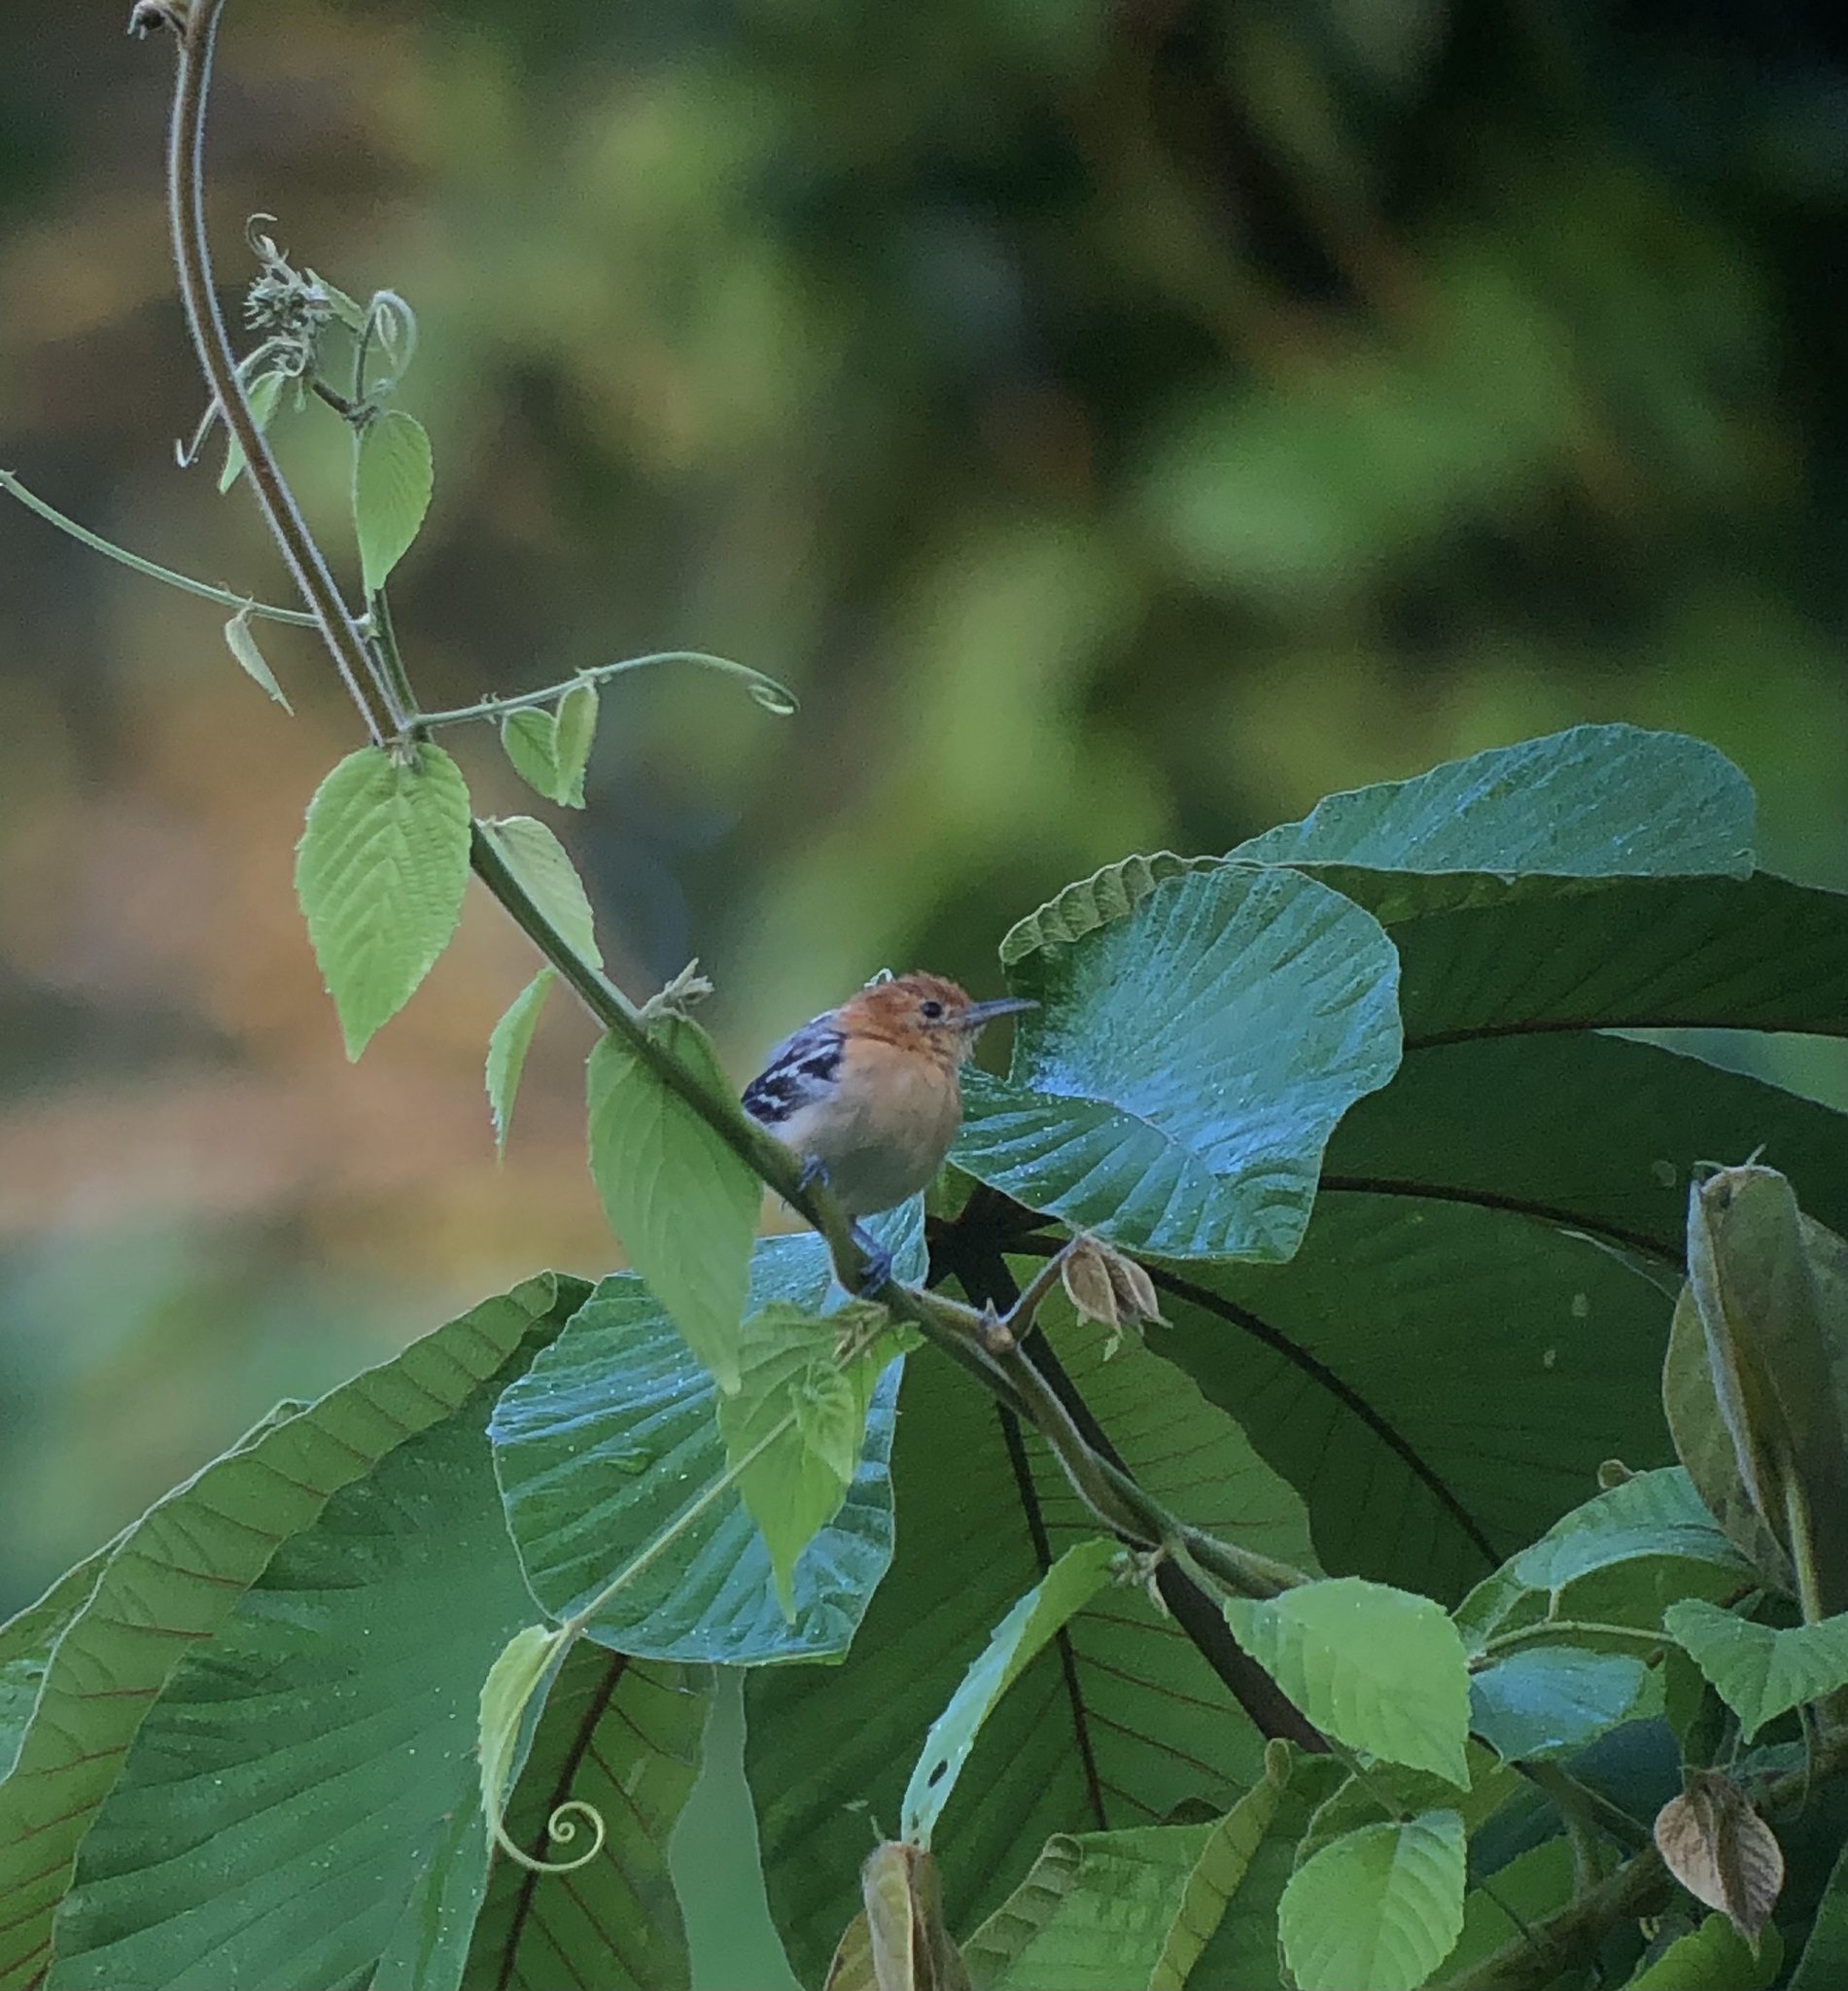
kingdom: Animalia
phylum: Chordata
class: Aves
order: Passeriformes
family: Thamnophilidae
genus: Myrmotherula
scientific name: Myrmotherula pacifica
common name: Pacific antwren
